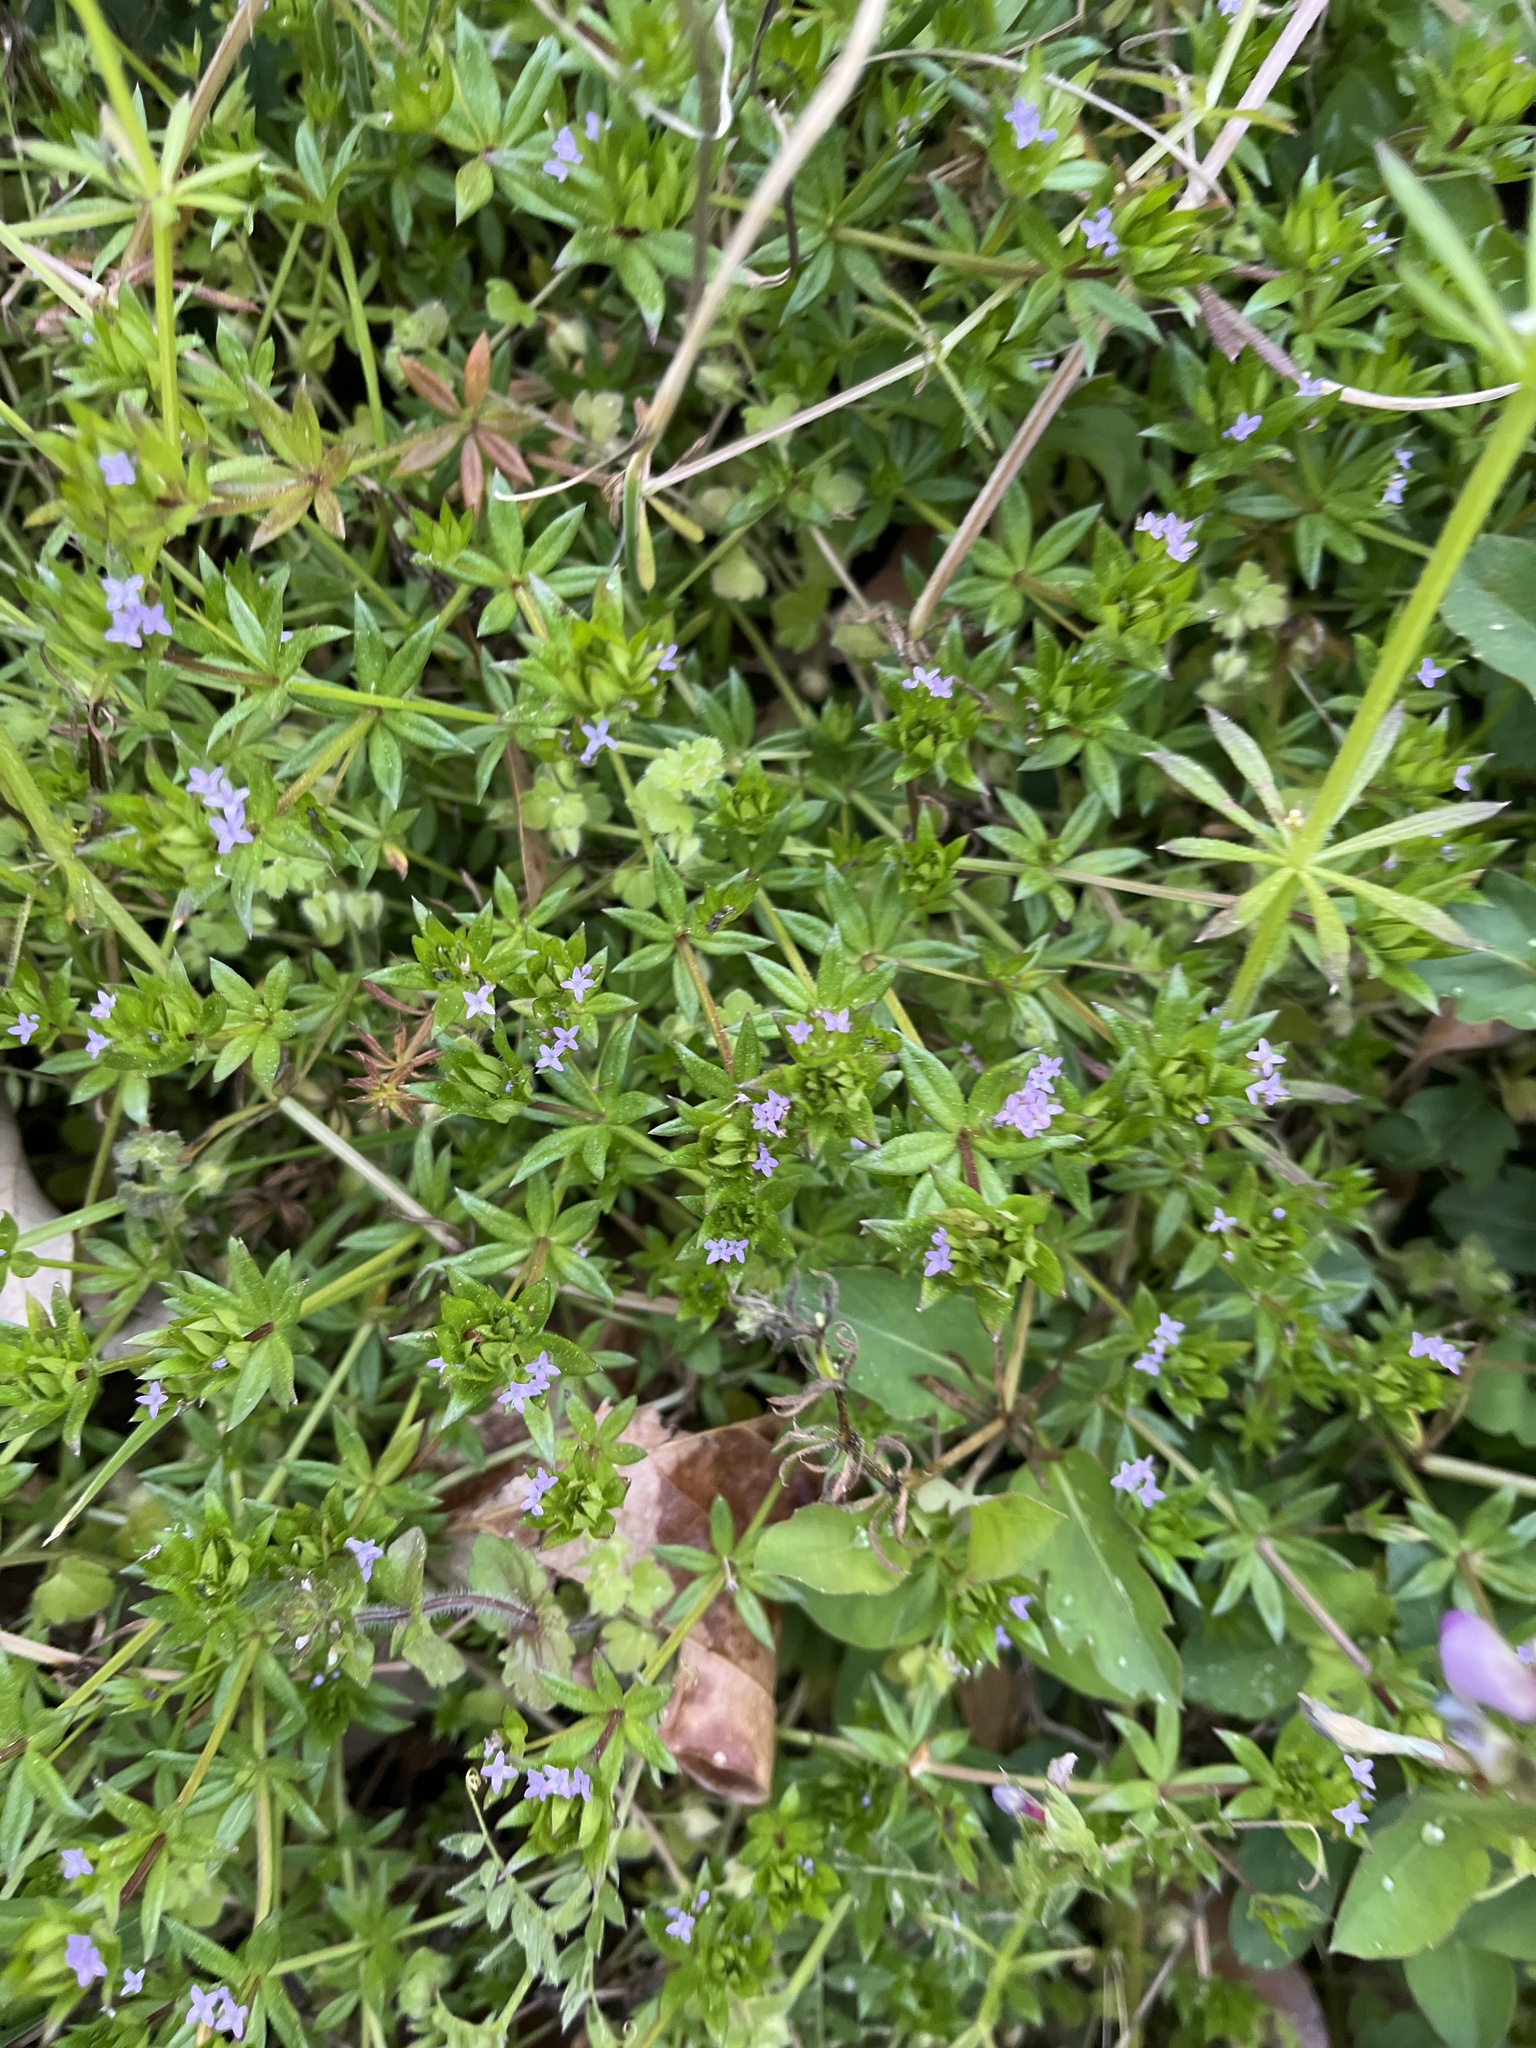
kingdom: Plantae
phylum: Tracheophyta
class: Magnoliopsida
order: Gentianales
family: Rubiaceae
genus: Sherardia
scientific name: Sherardia arvensis
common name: Field madder
